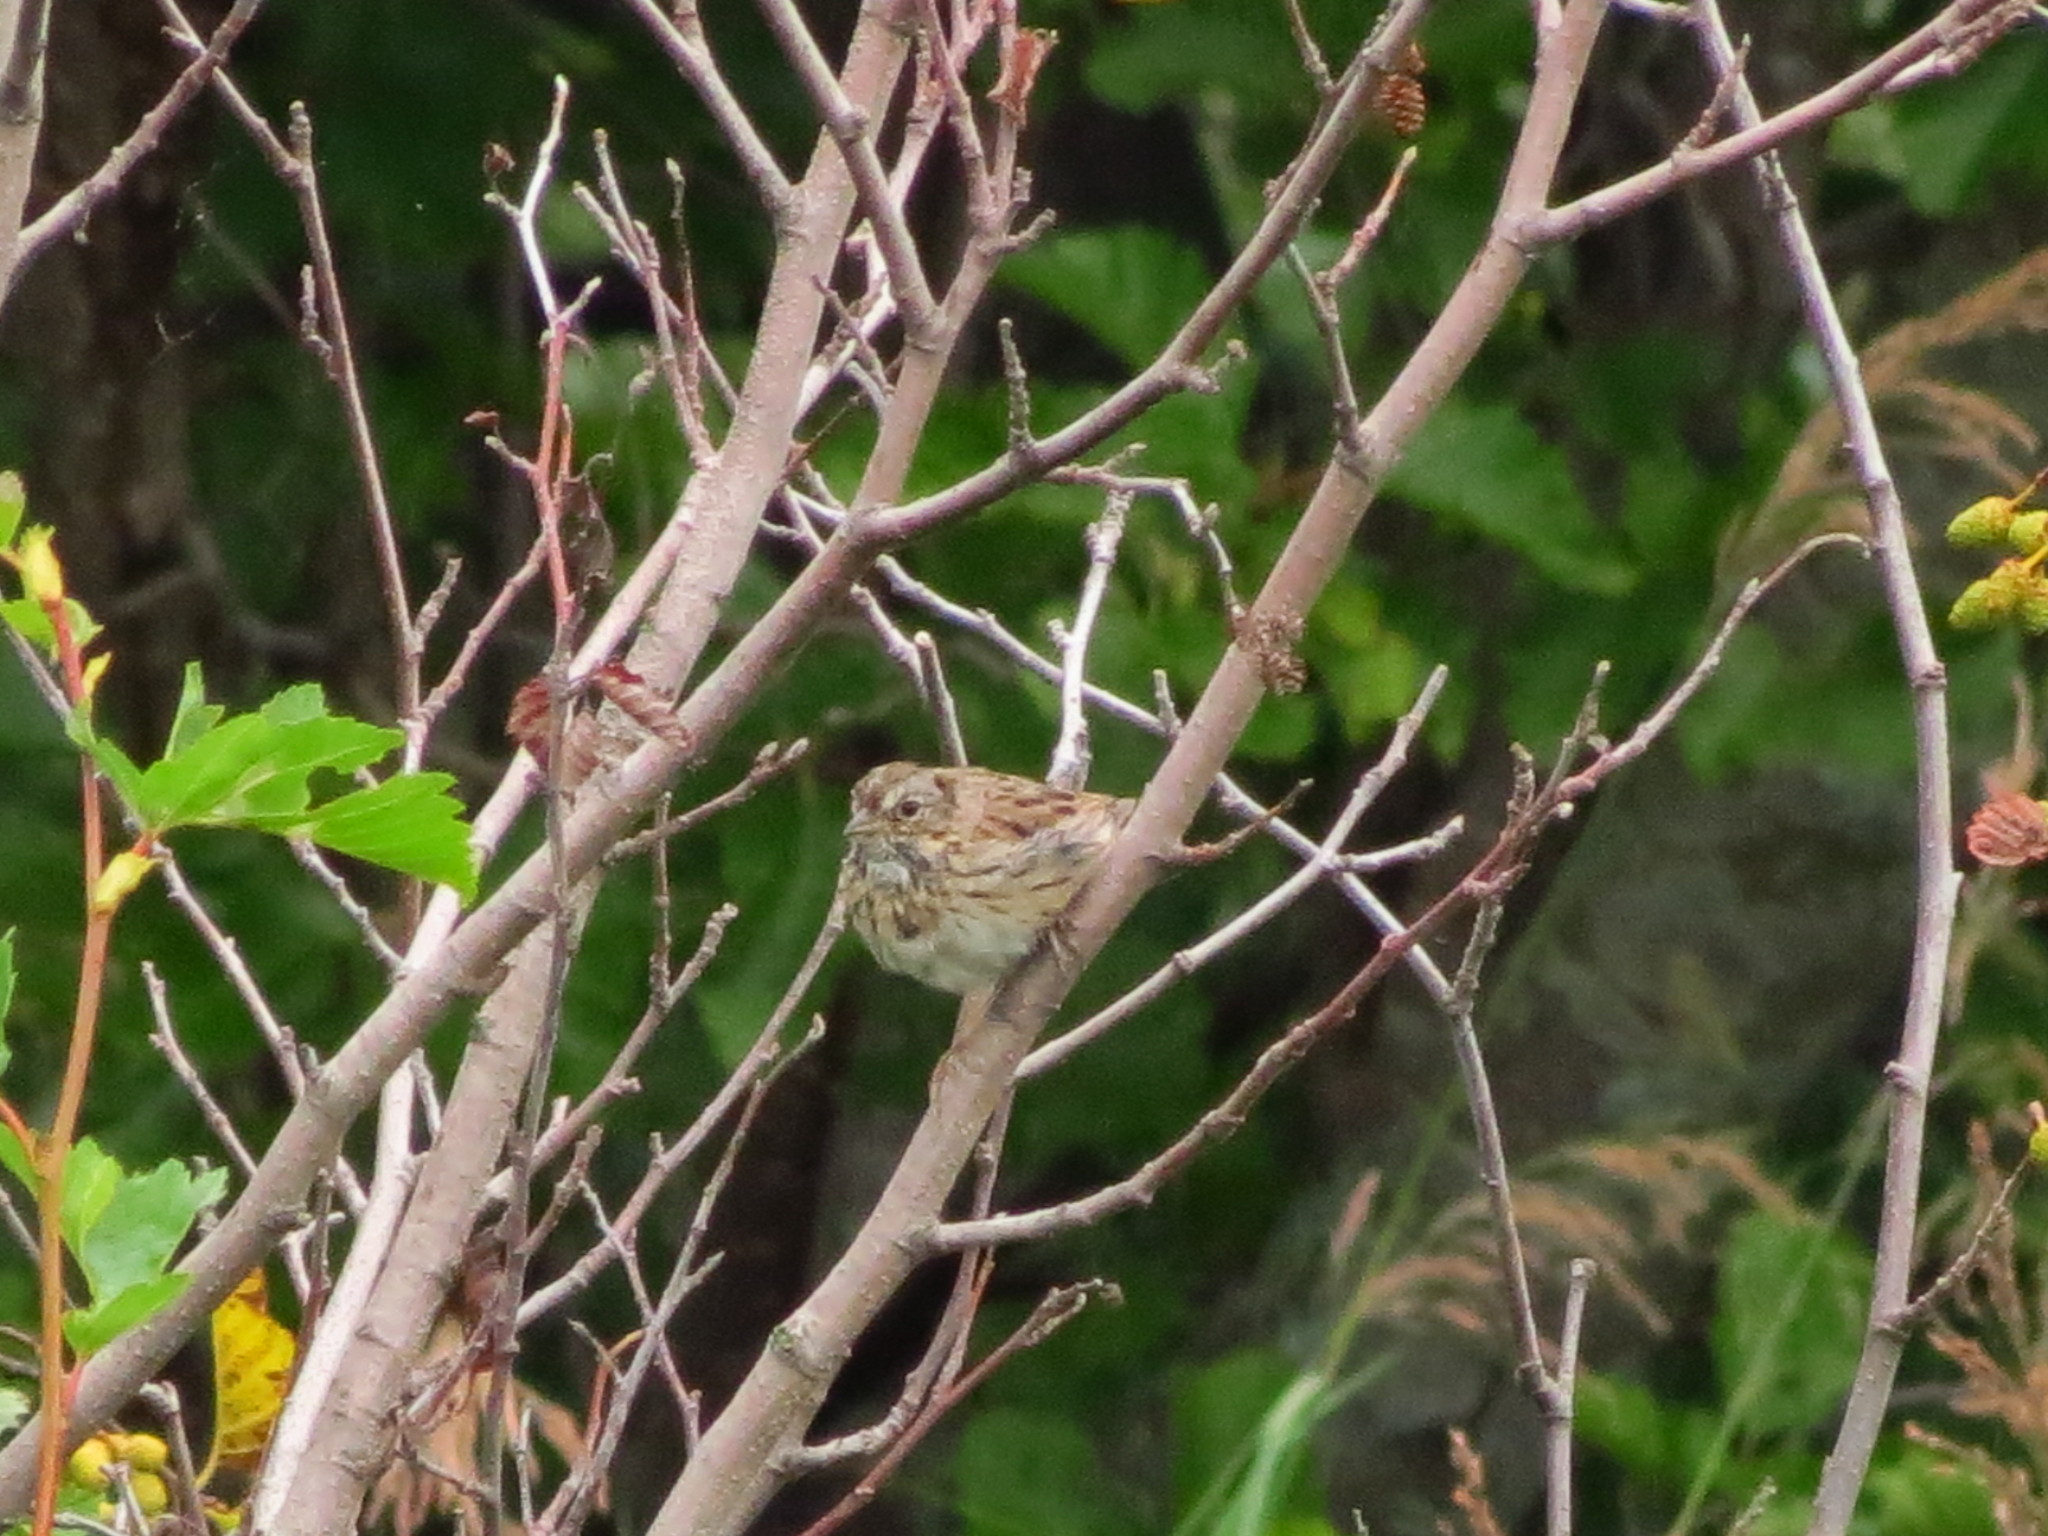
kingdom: Animalia
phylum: Chordata
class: Aves
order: Passeriformes
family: Passerellidae
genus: Melospiza
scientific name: Melospiza lincolnii
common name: Lincoln's sparrow
